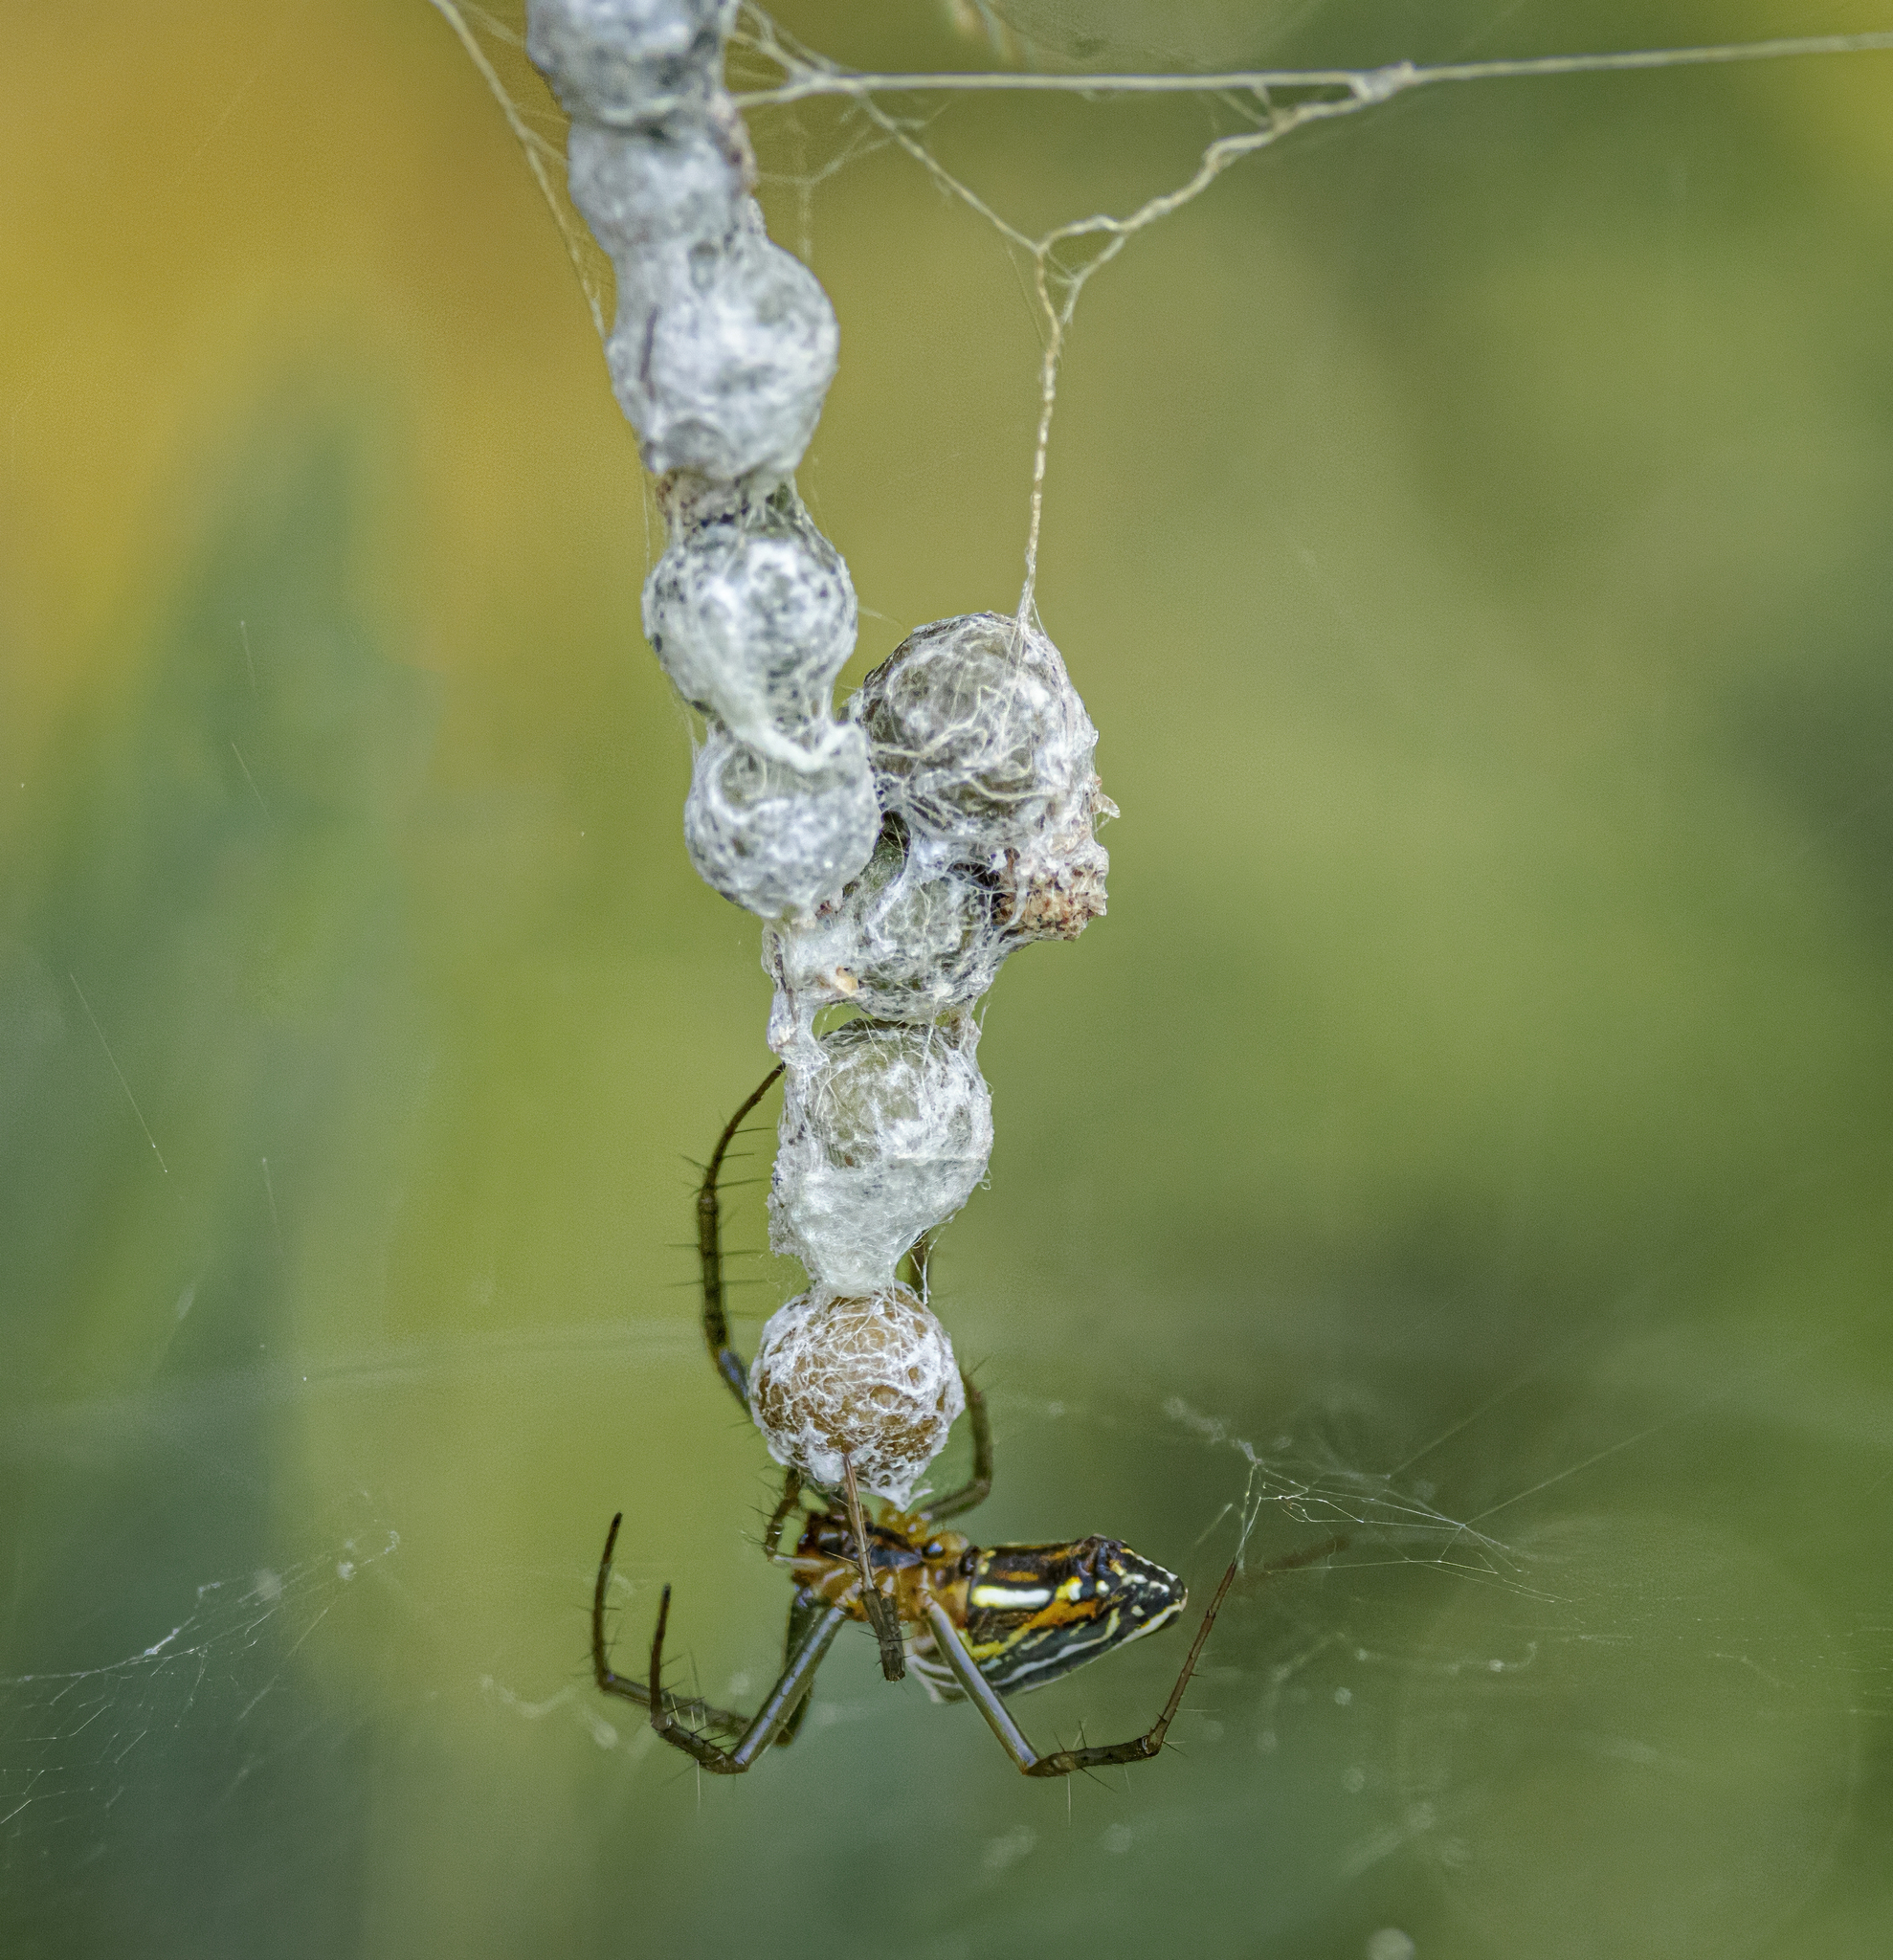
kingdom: Animalia
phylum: Arthropoda
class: Arachnida
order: Araneae
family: Araneidae
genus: Mecynogea
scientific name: Mecynogea lemniscata
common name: Orb weavers
